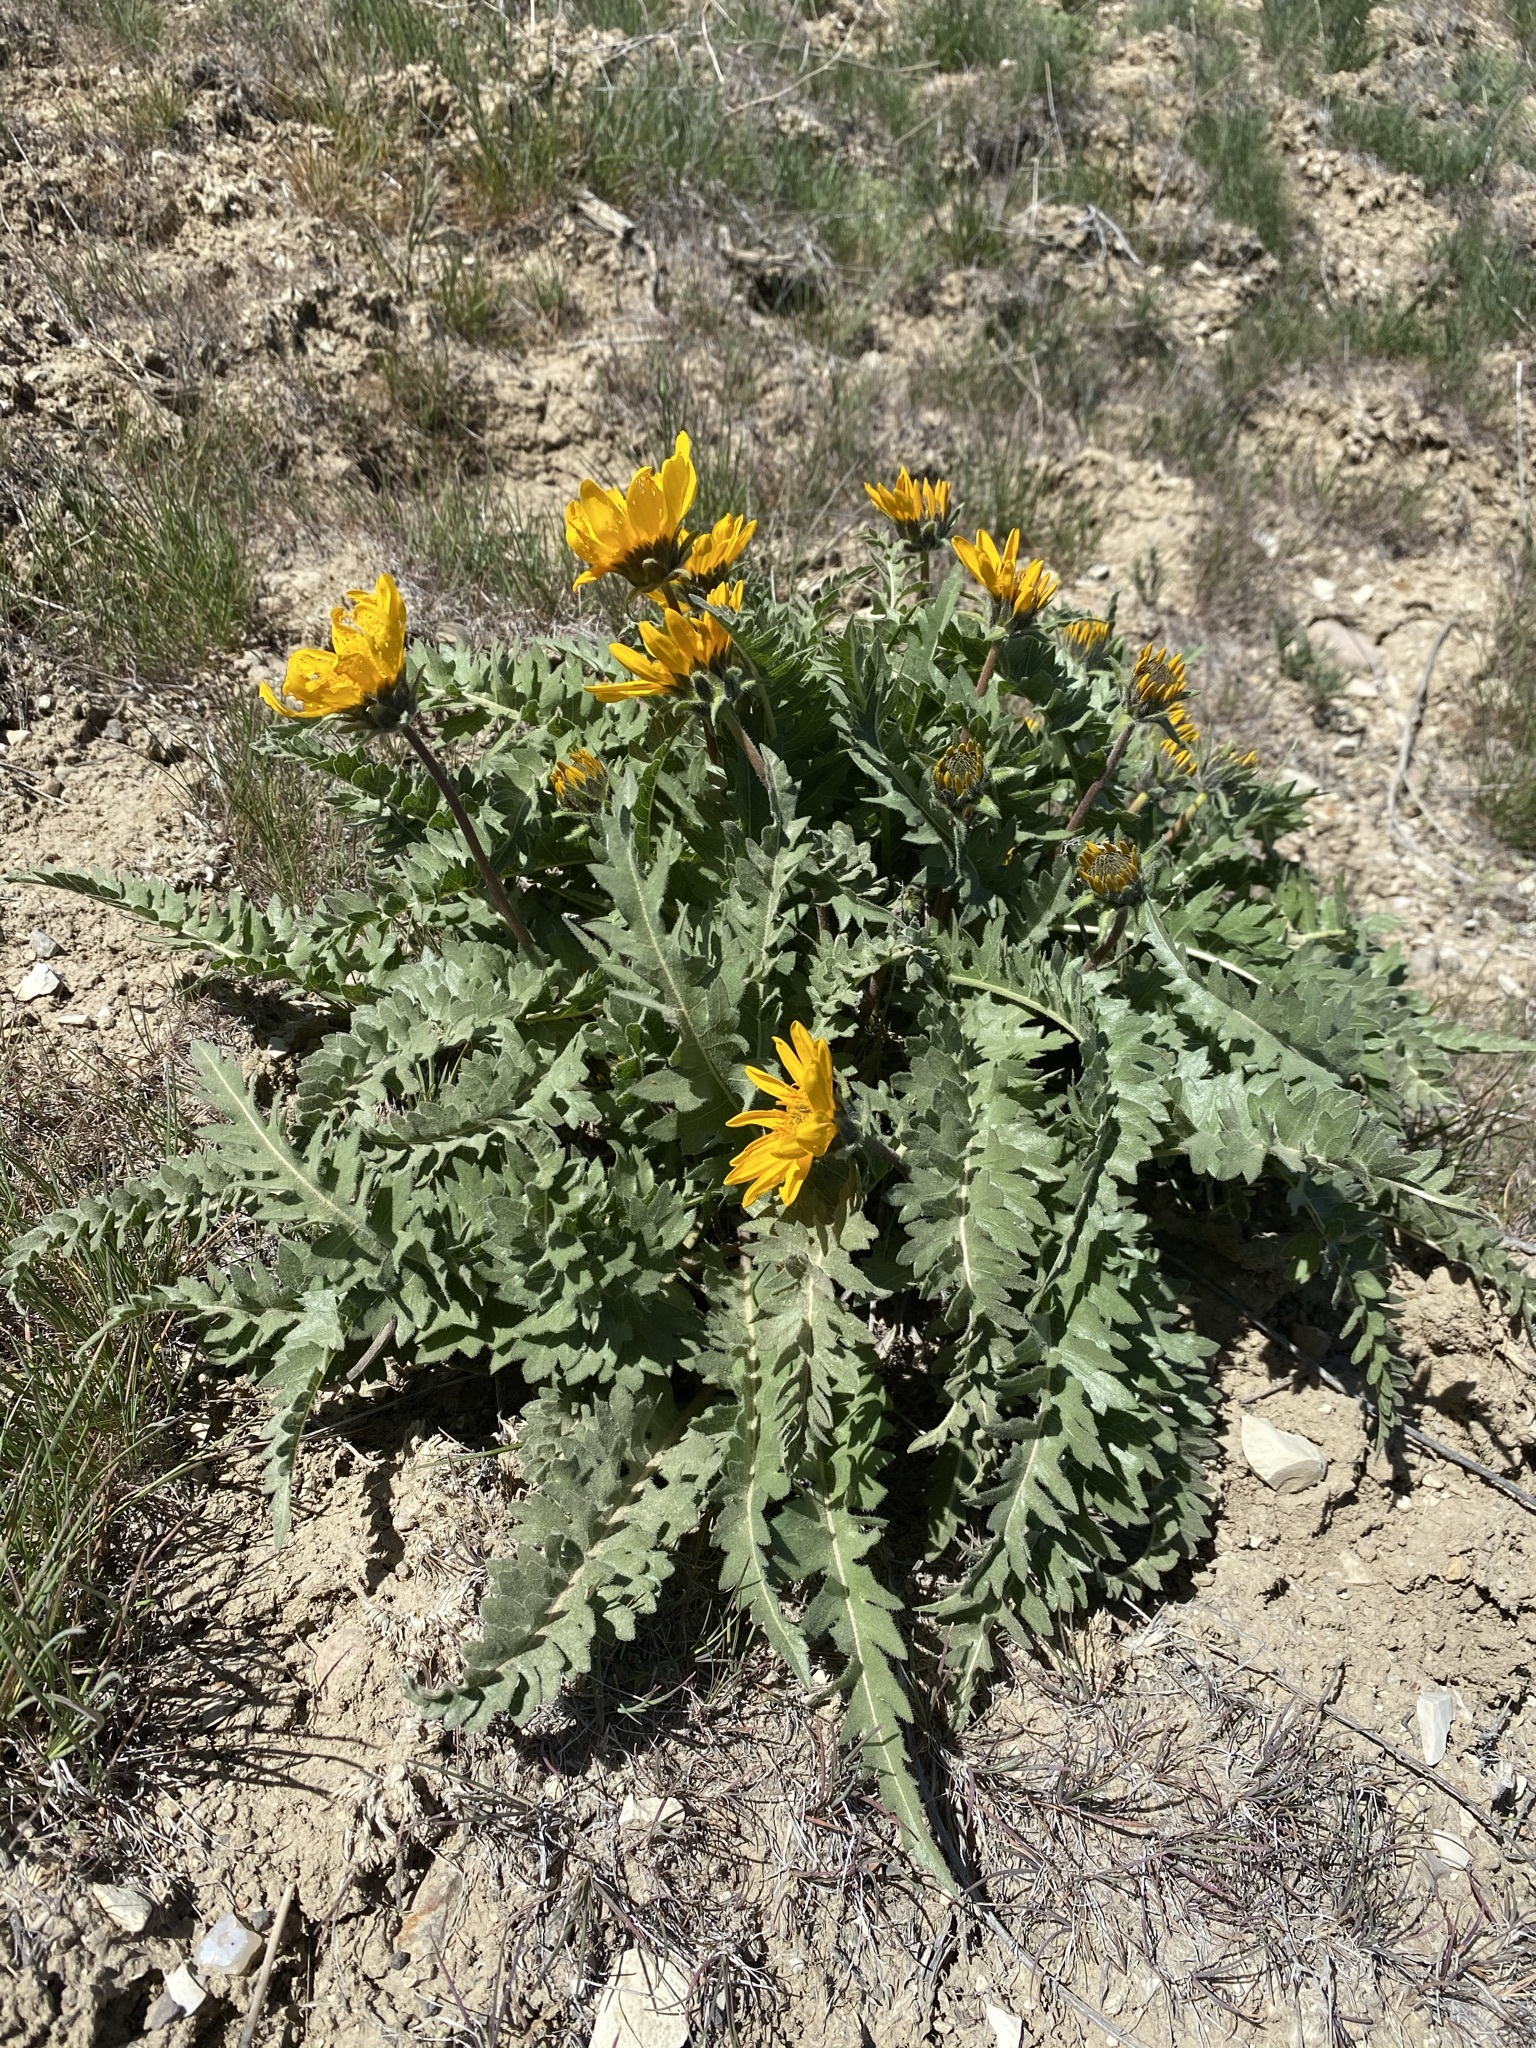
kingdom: Plantae
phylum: Tracheophyta
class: Magnoliopsida
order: Asterales
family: Asteraceae
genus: Balsamorhiza
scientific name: Balsamorhiza hookeri
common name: Hooker's balsamroot
